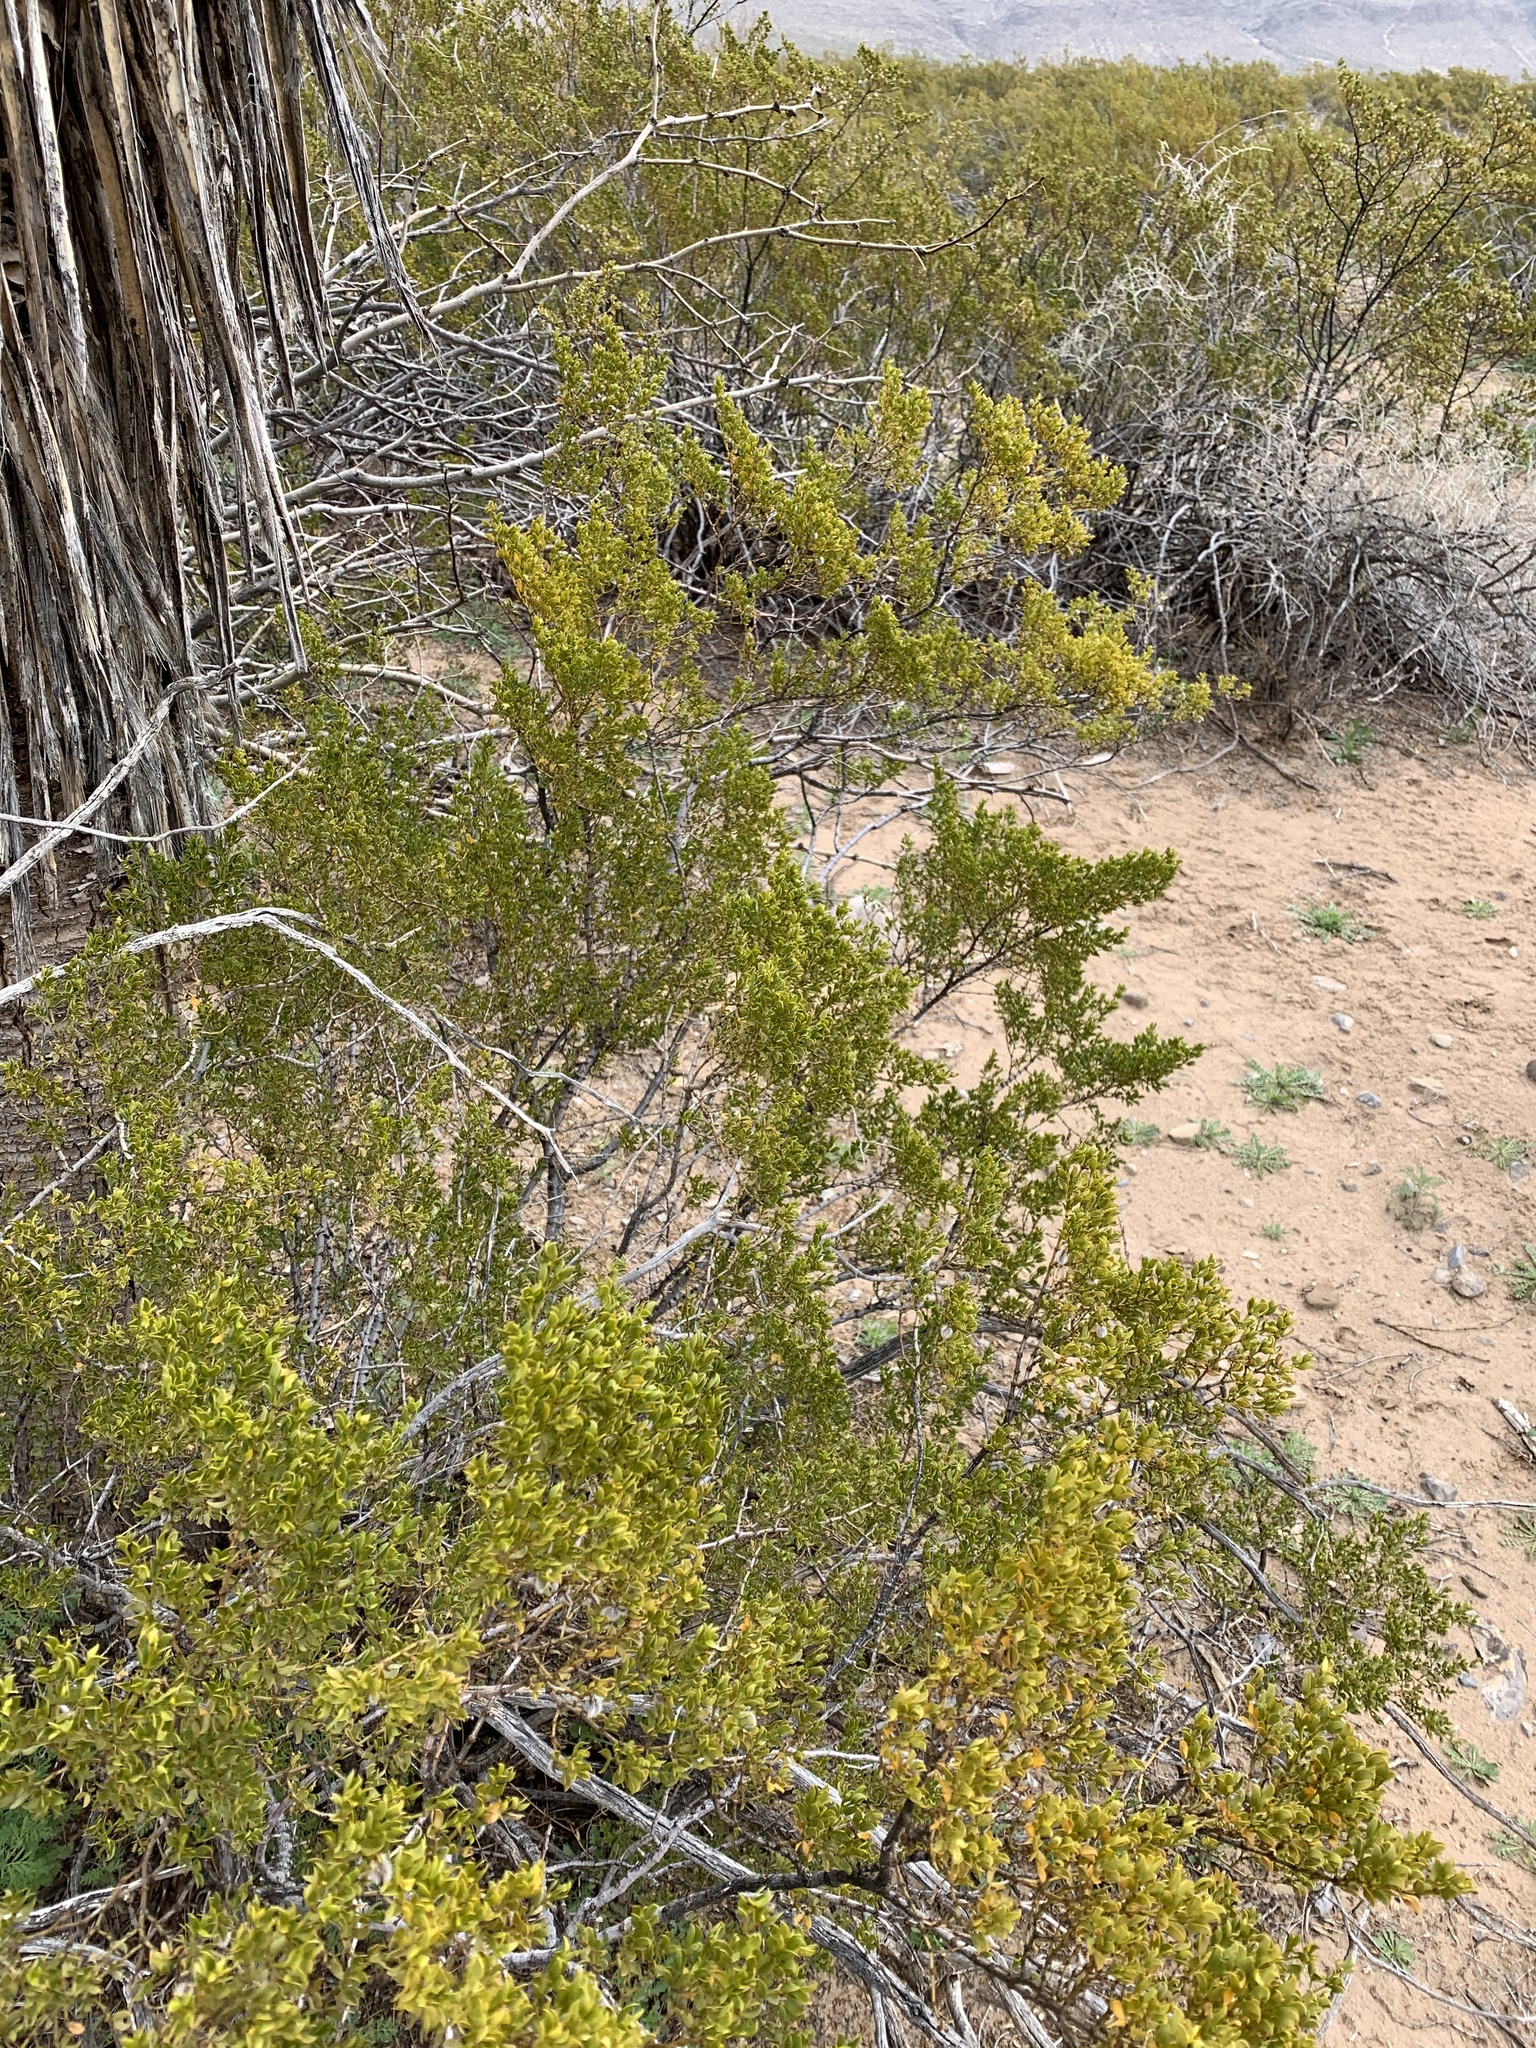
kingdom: Plantae
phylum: Tracheophyta
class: Magnoliopsida
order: Zygophyllales
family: Zygophyllaceae
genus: Larrea
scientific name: Larrea tridentata
